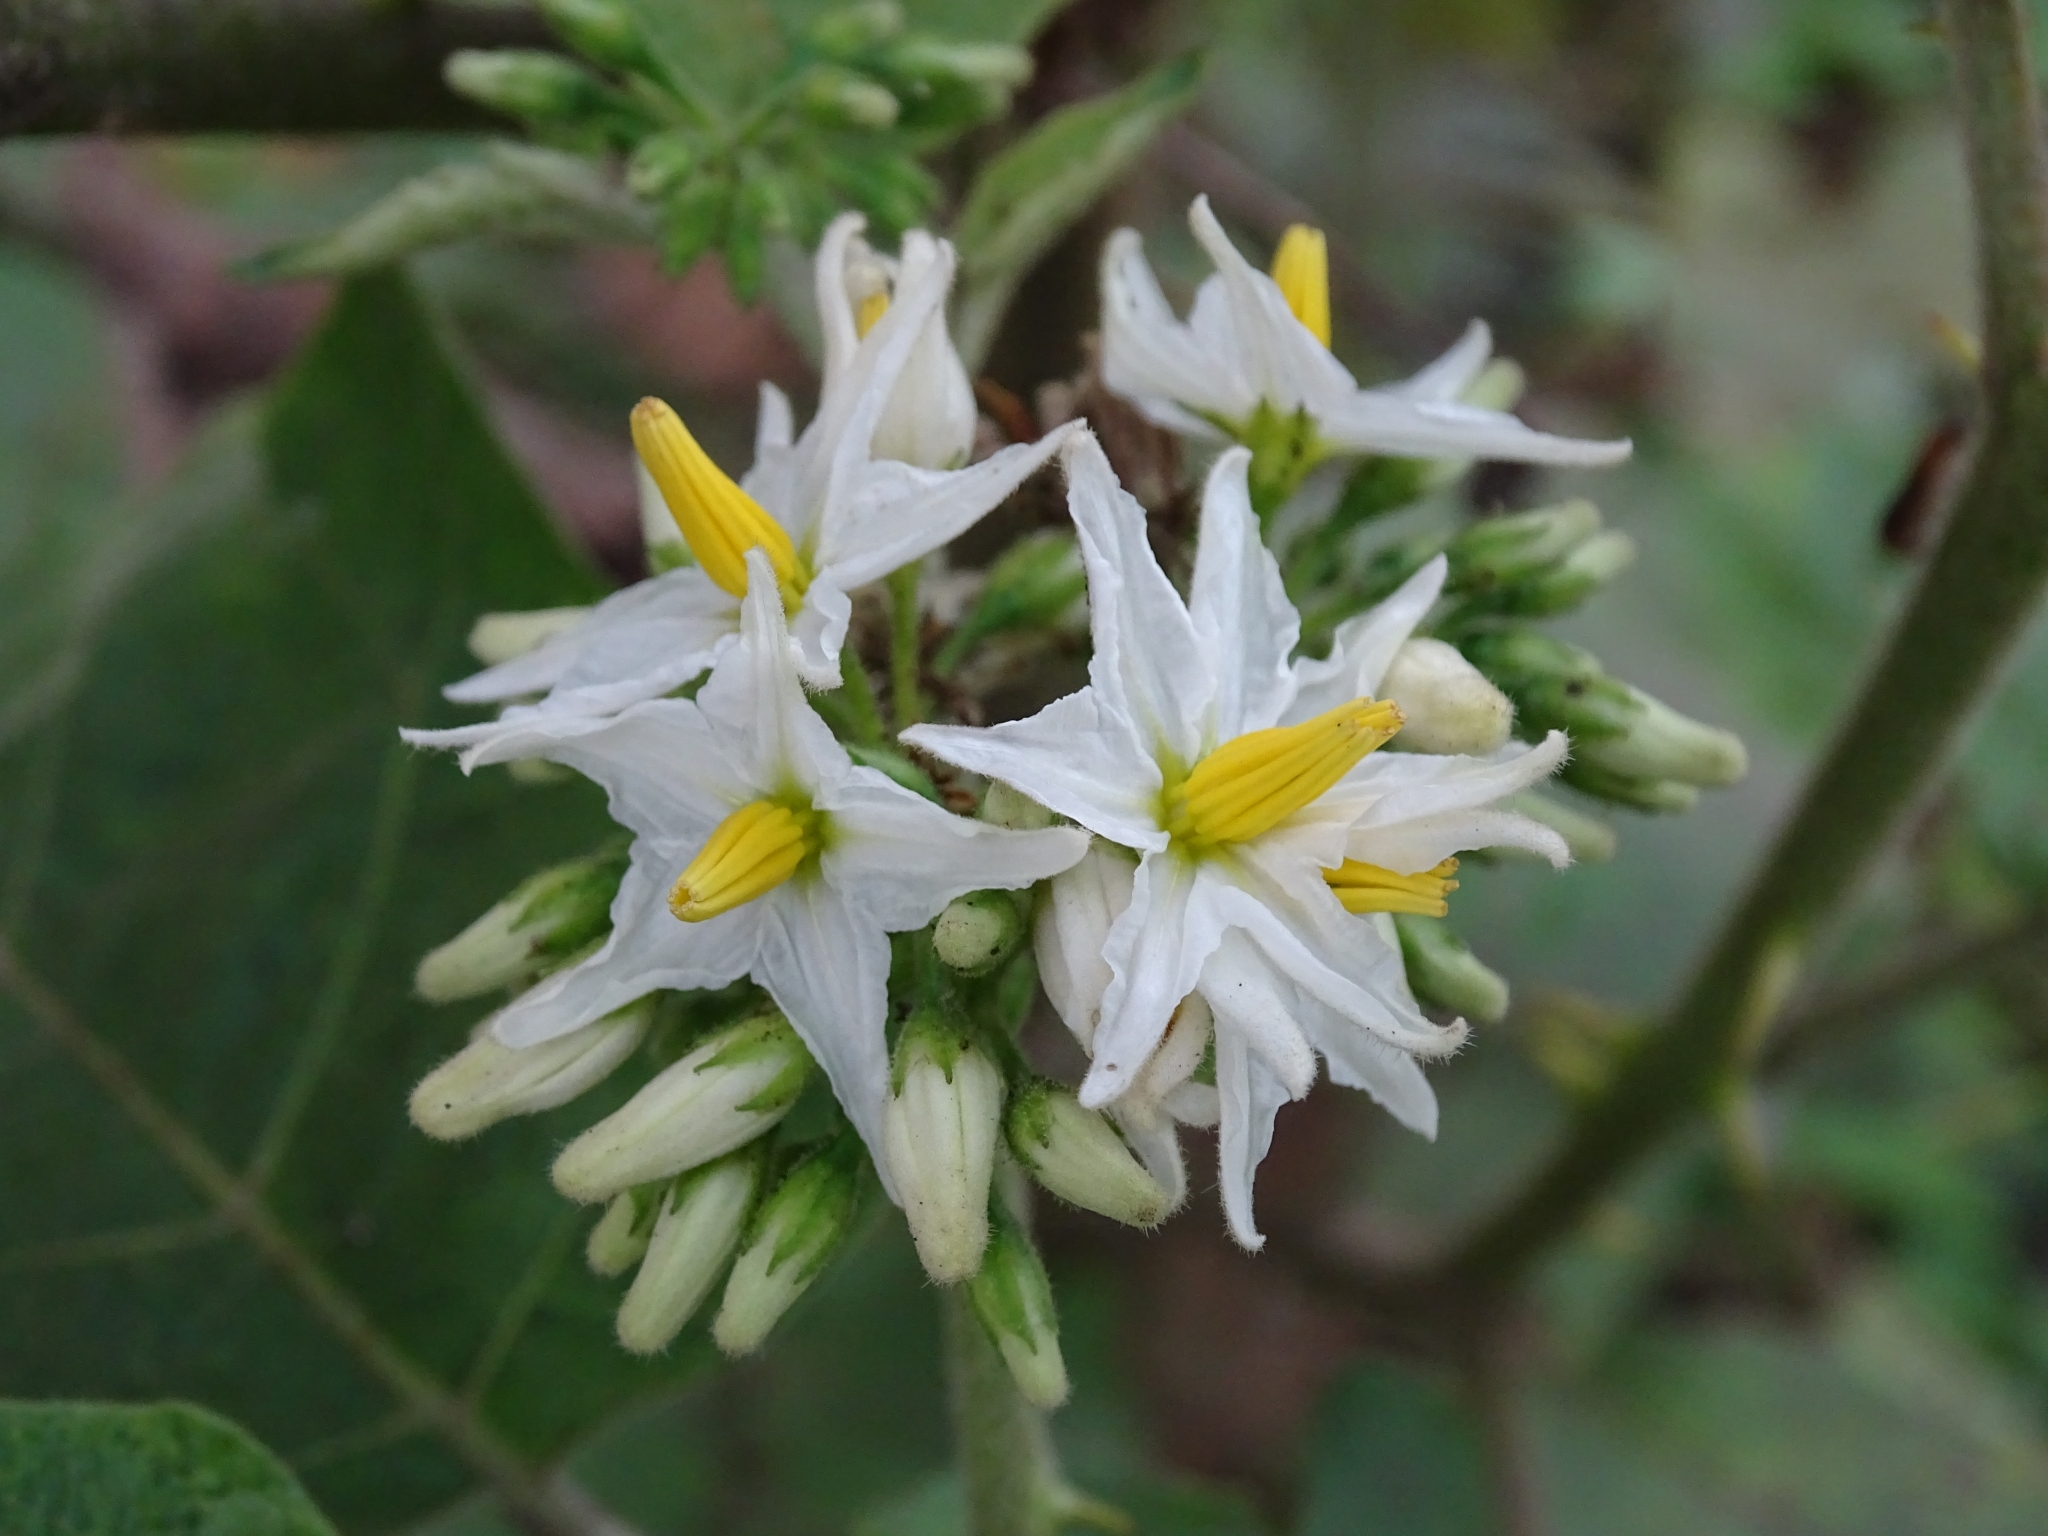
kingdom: Plantae
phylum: Tracheophyta
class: Magnoliopsida
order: Solanales
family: Solanaceae
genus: Solanum
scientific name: Solanum torvum
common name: Turkey berry
